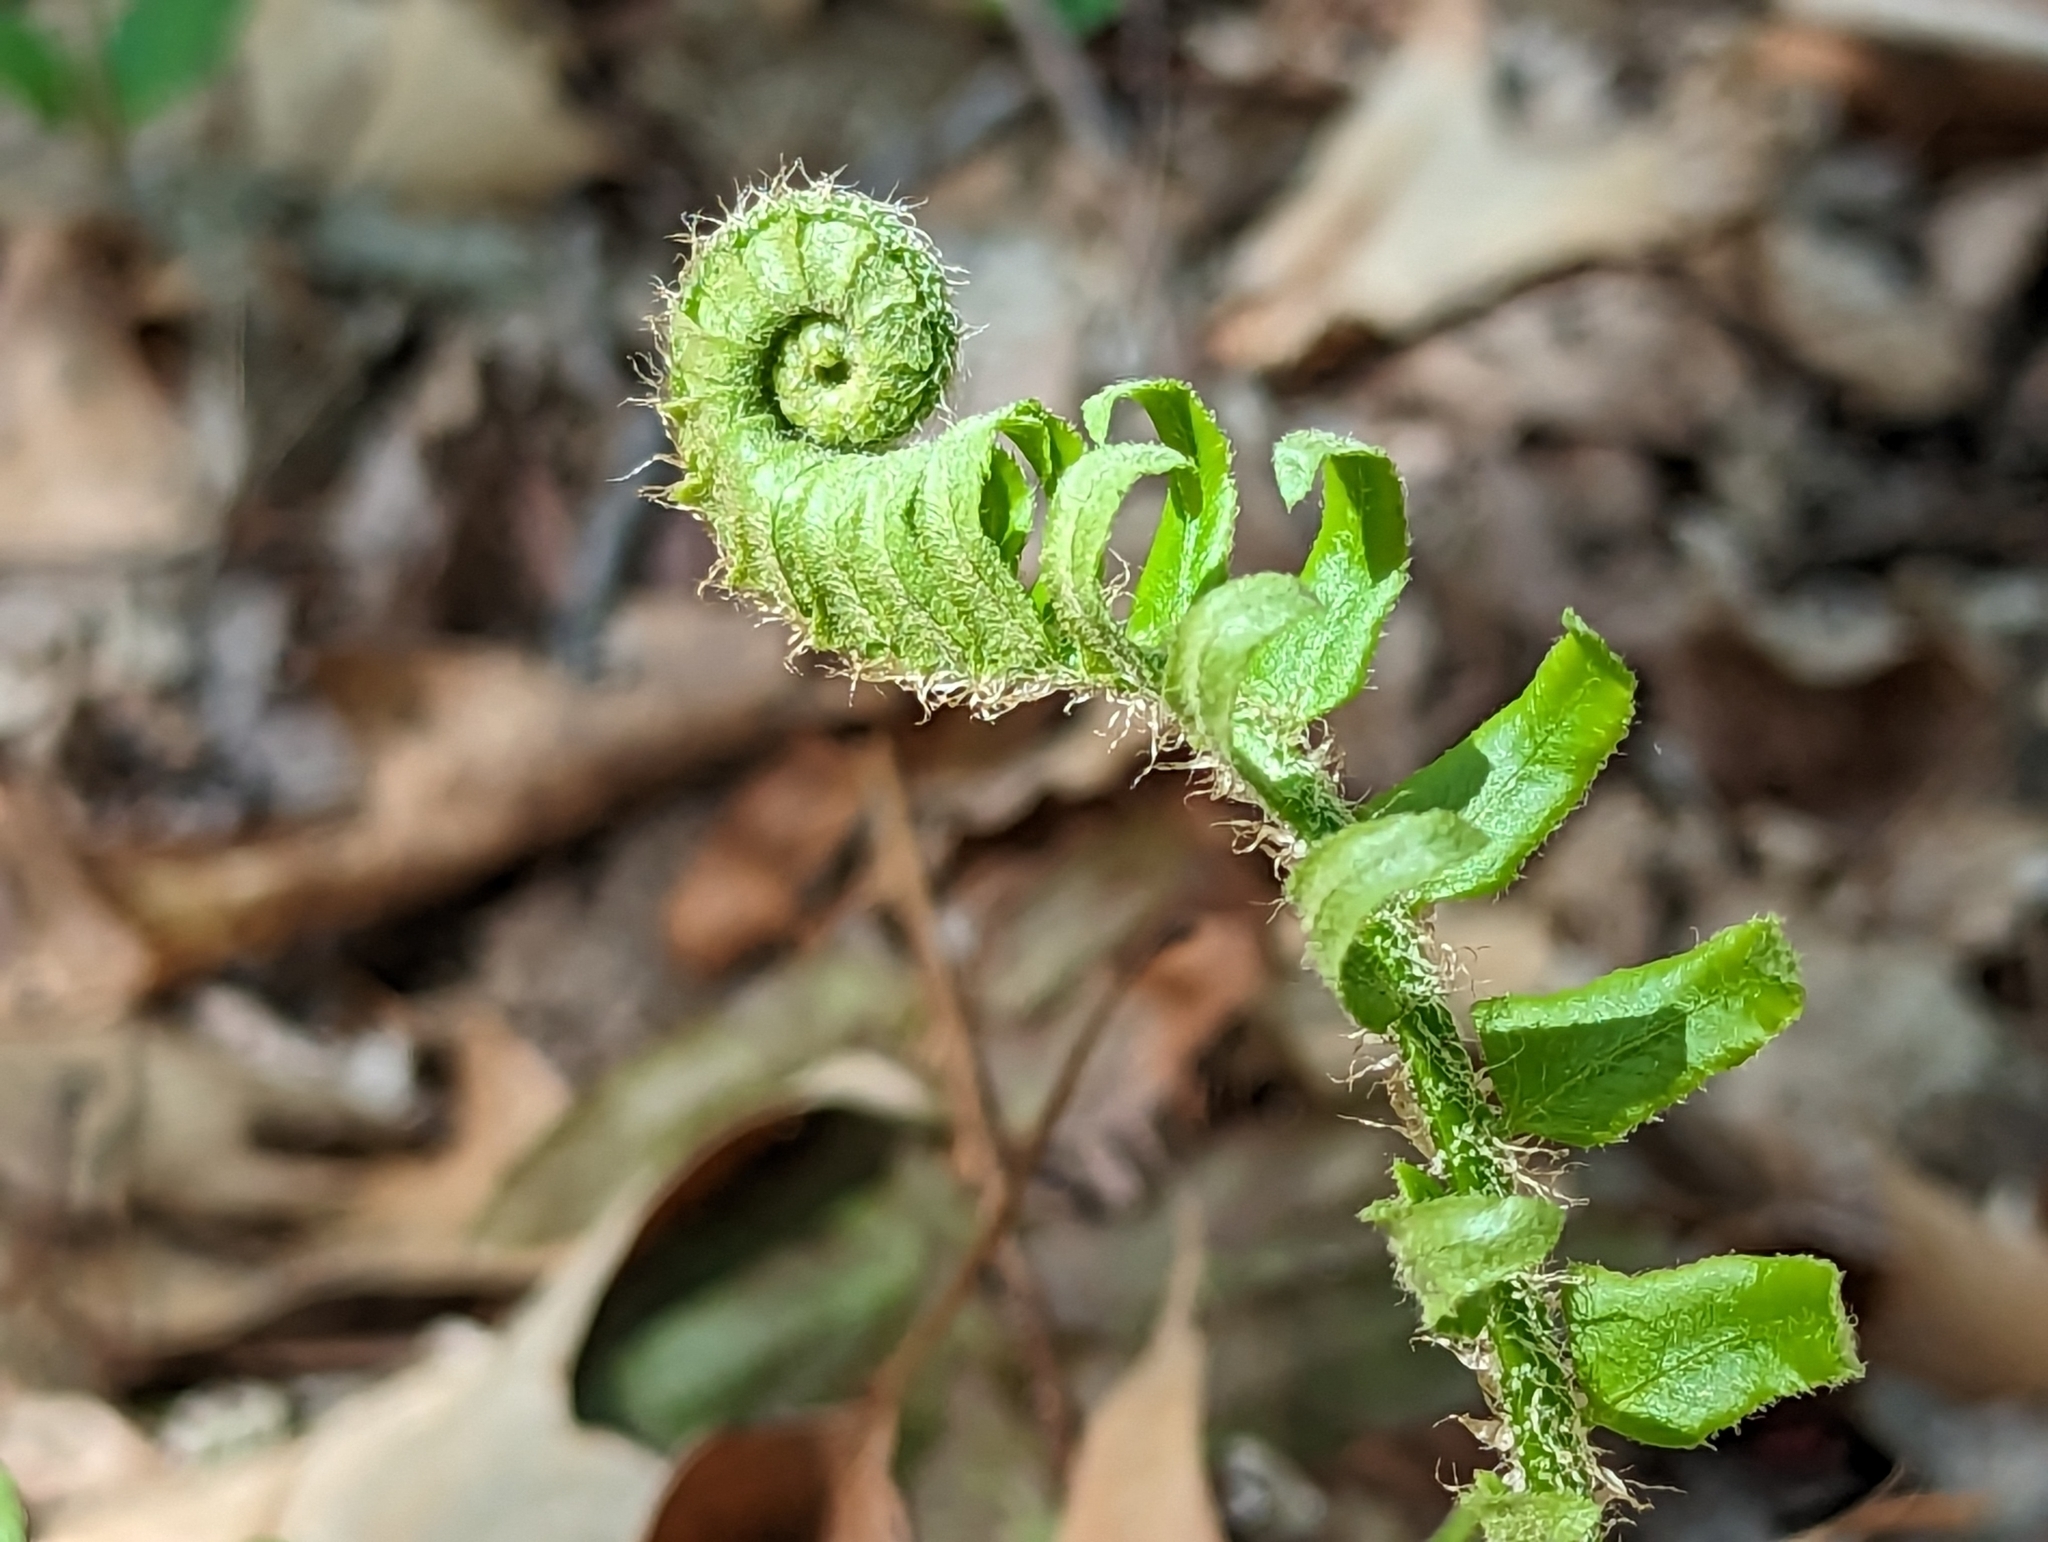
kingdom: Plantae
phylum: Tracheophyta
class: Polypodiopsida
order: Polypodiales
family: Dryopteridaceae
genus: Polystichum
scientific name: Polystichum acrostichoides
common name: Christmas fern
